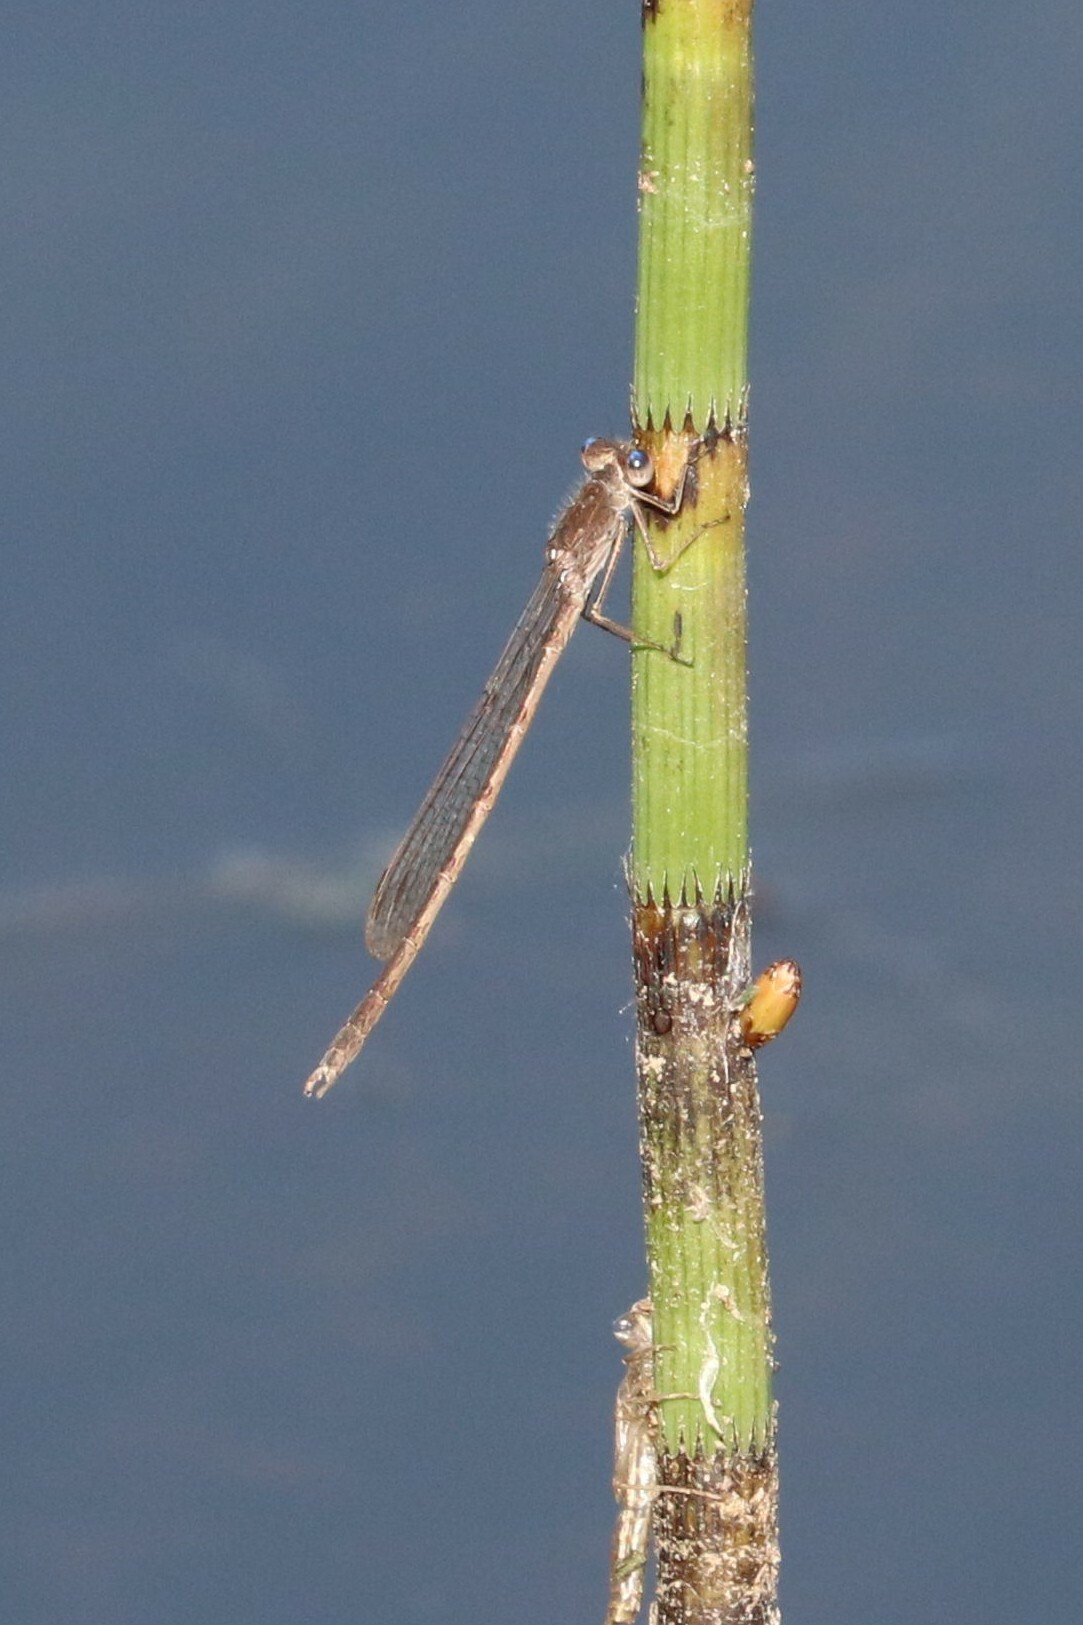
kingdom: Animalia
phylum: Arthropoda
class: Insecta
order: Odonata
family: Lestidae
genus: Sympecma
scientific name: Sympecma paedisca
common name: Siberian winter damsel
